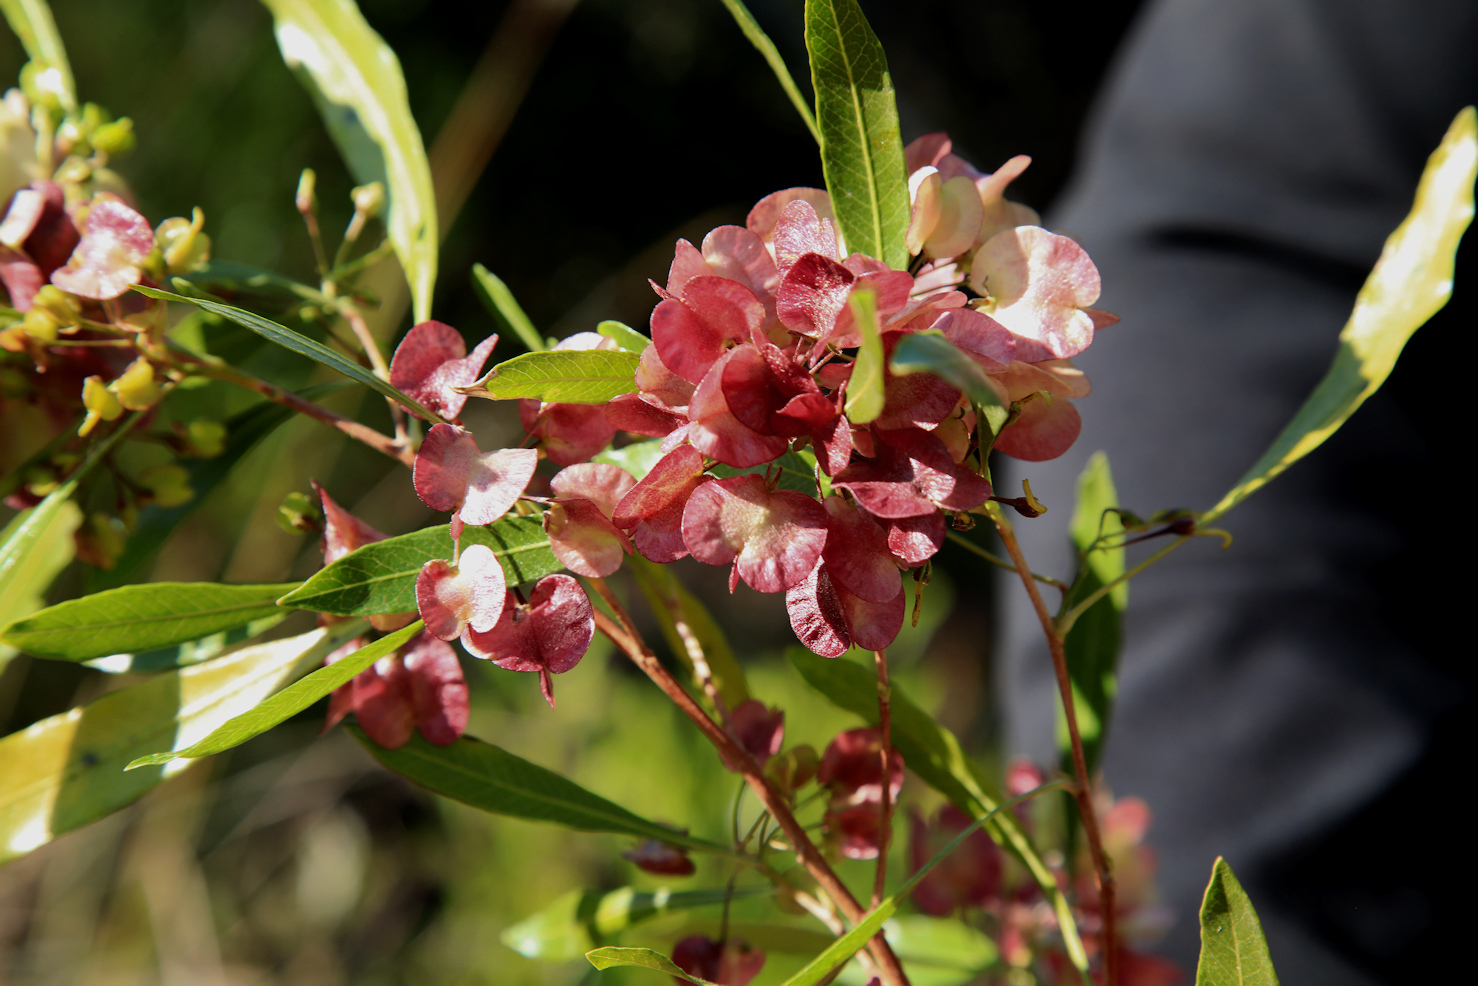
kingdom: Plantae
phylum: Tracheophyta
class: Magnoliopsida
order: Sapindales
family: Sapindaceae
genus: Dodonaea
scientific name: Dodonaea viscosa
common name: Hopbush
